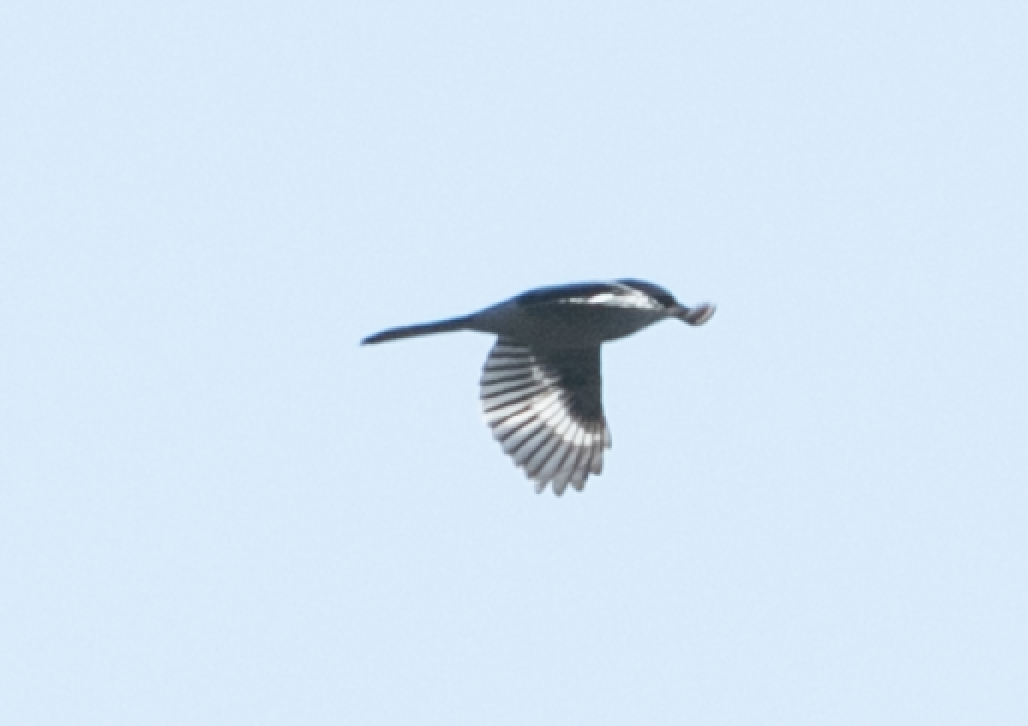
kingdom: Animalia
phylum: Chordata
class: Aves
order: Passeriformes
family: Laniidae
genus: Lanius
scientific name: Lanius excubitor
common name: Great grey shrike
